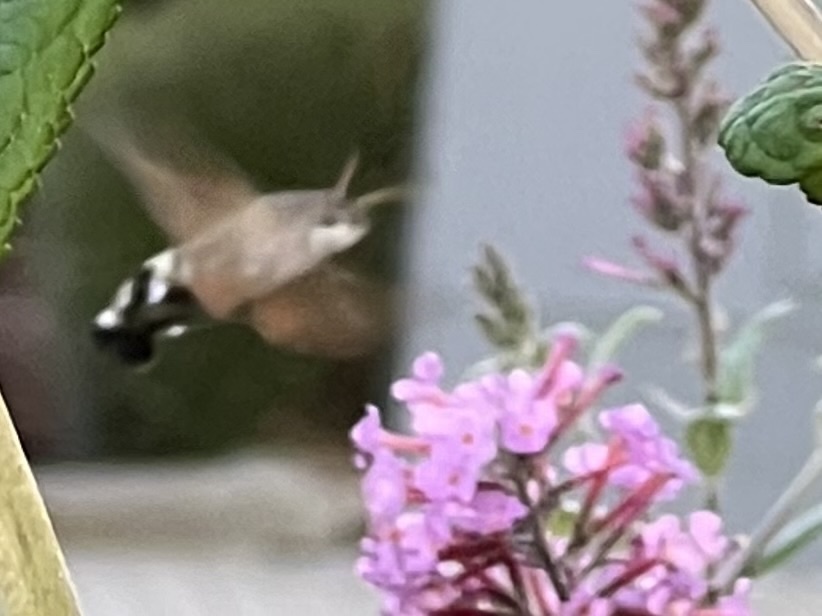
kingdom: Animalia
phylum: Arthropoda
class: Insecta
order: Lepidoptera
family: Sphingidae
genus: Macroglossum
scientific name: Macroglossum stellatarum
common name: Humming-bird hawk-moth
